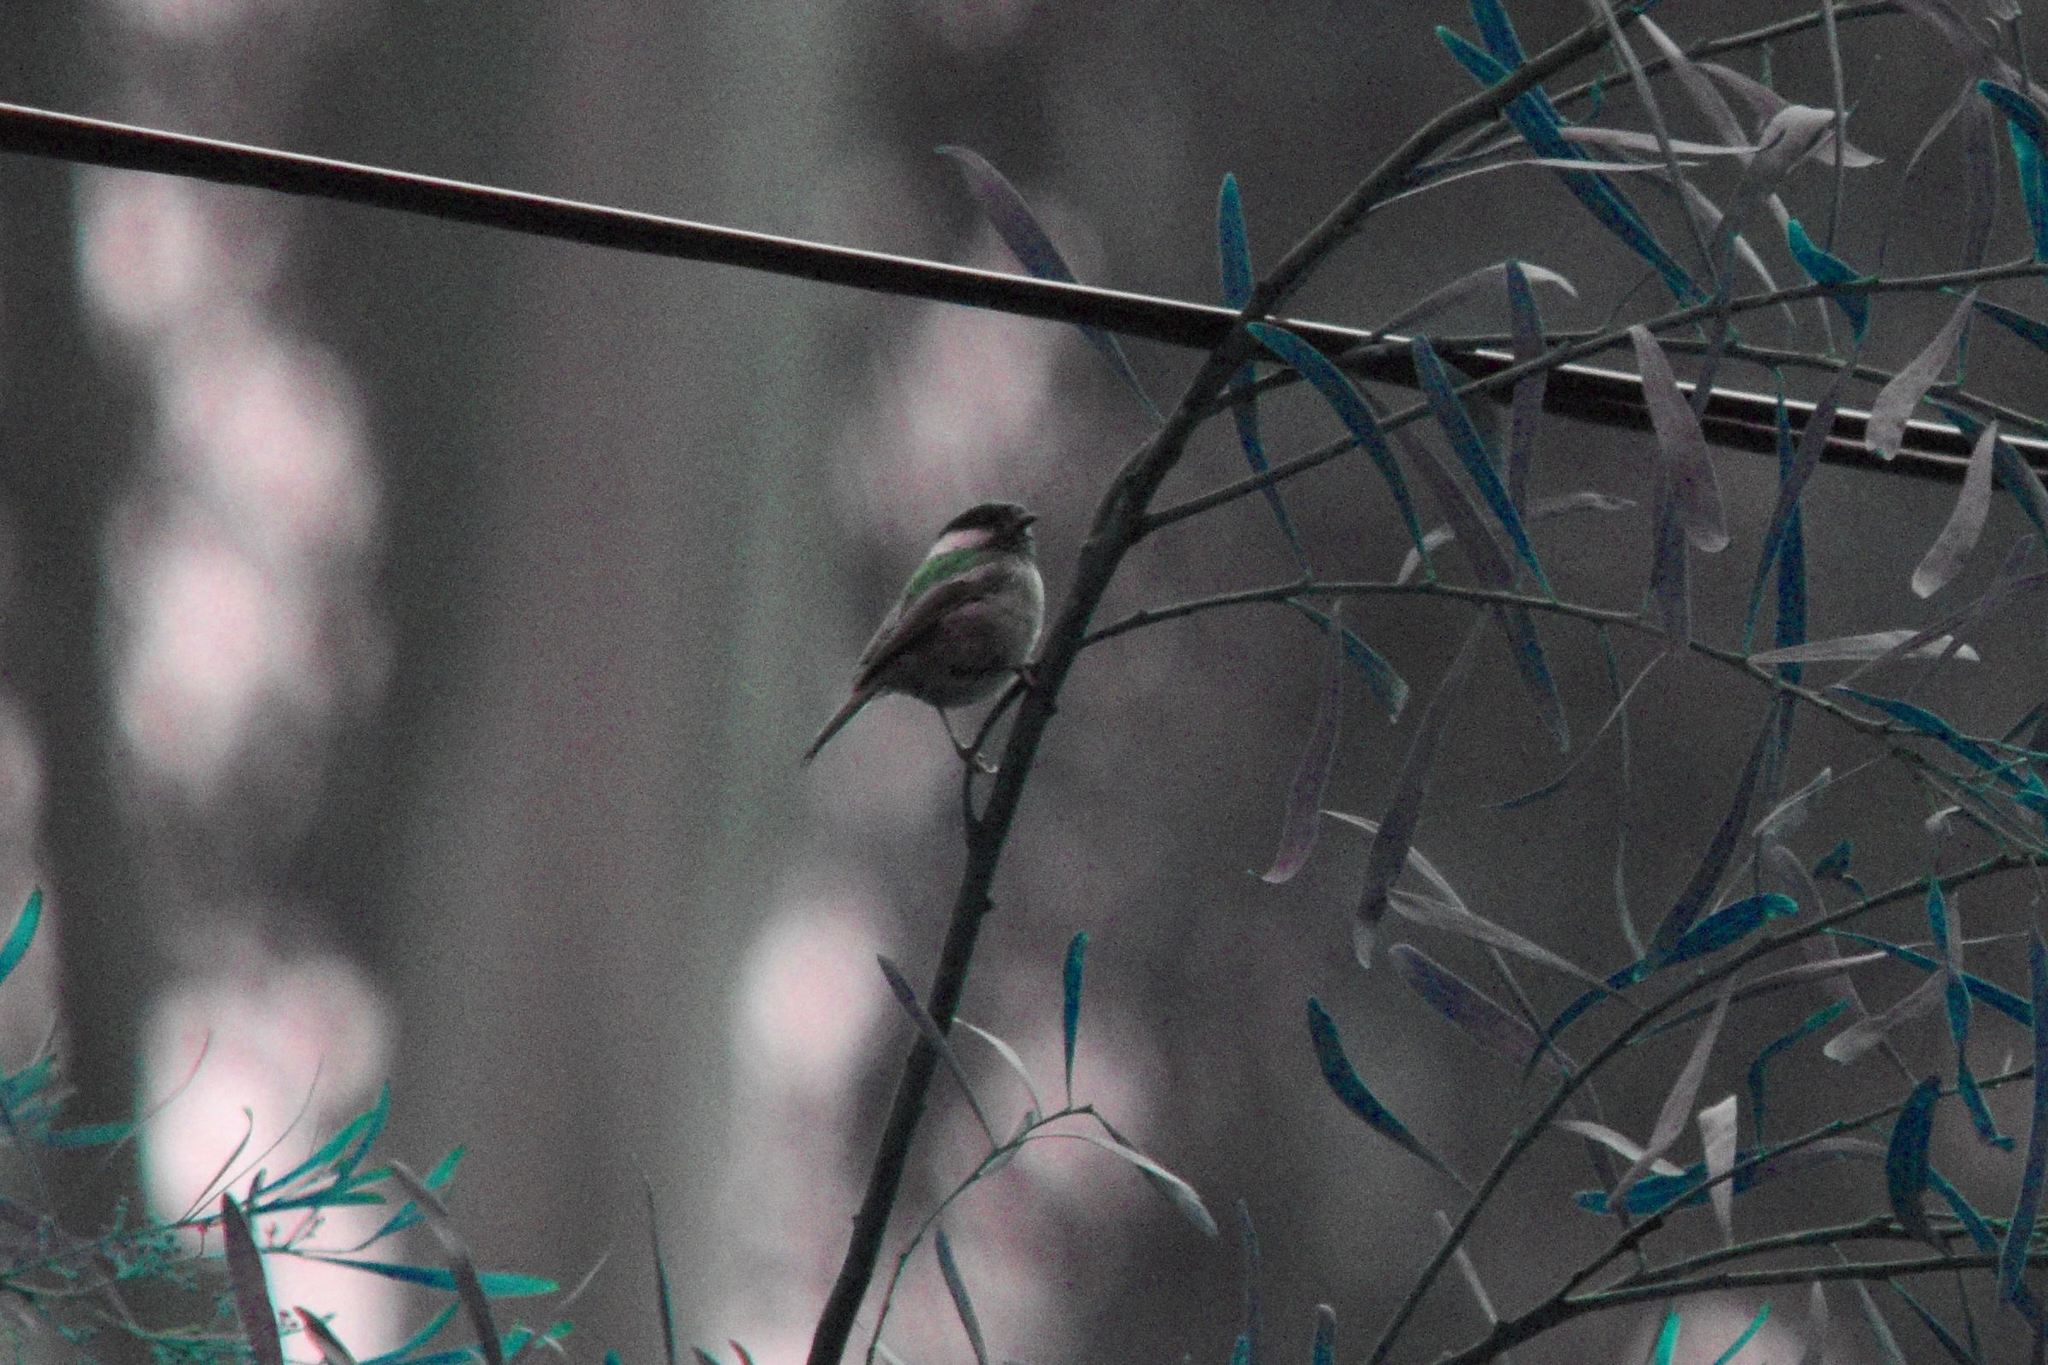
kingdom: Animalia
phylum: Chordata
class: Aves
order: Passeriformes
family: Paridae
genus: Poecile
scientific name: Poecile rufescens
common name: Chestnut-backed chickadee
